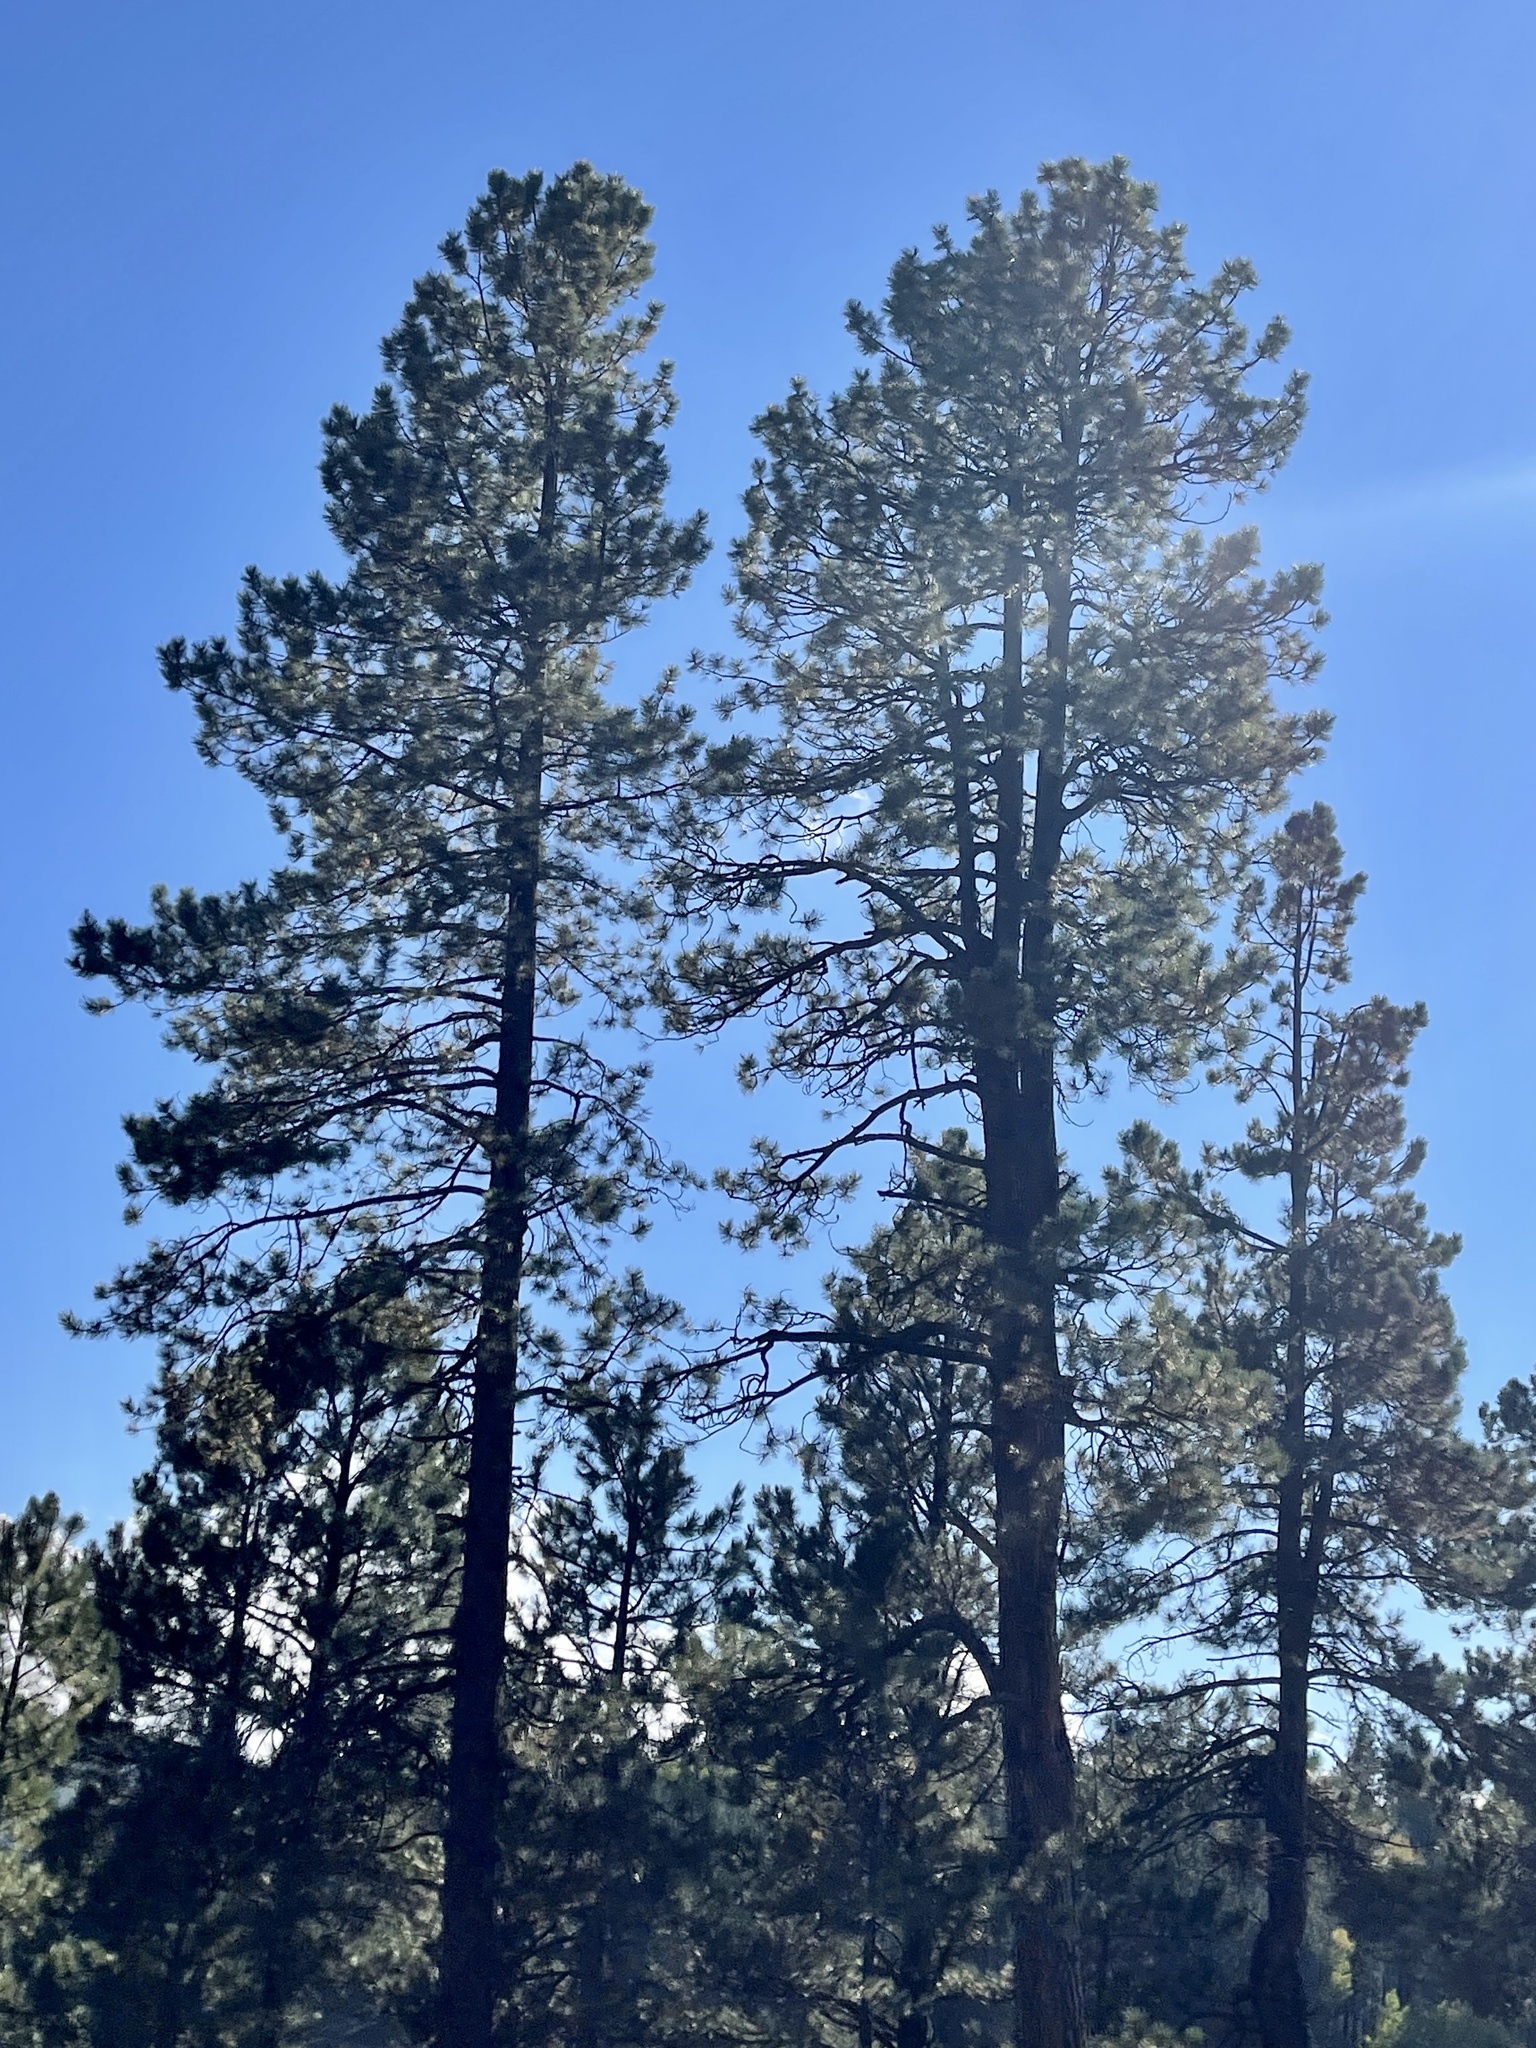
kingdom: Plantae
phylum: Tracheophyta
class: Pinopsida
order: Pinales
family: Pinaceae
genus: Pinus
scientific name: Pinus ponderosa
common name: Western yellow-pine
